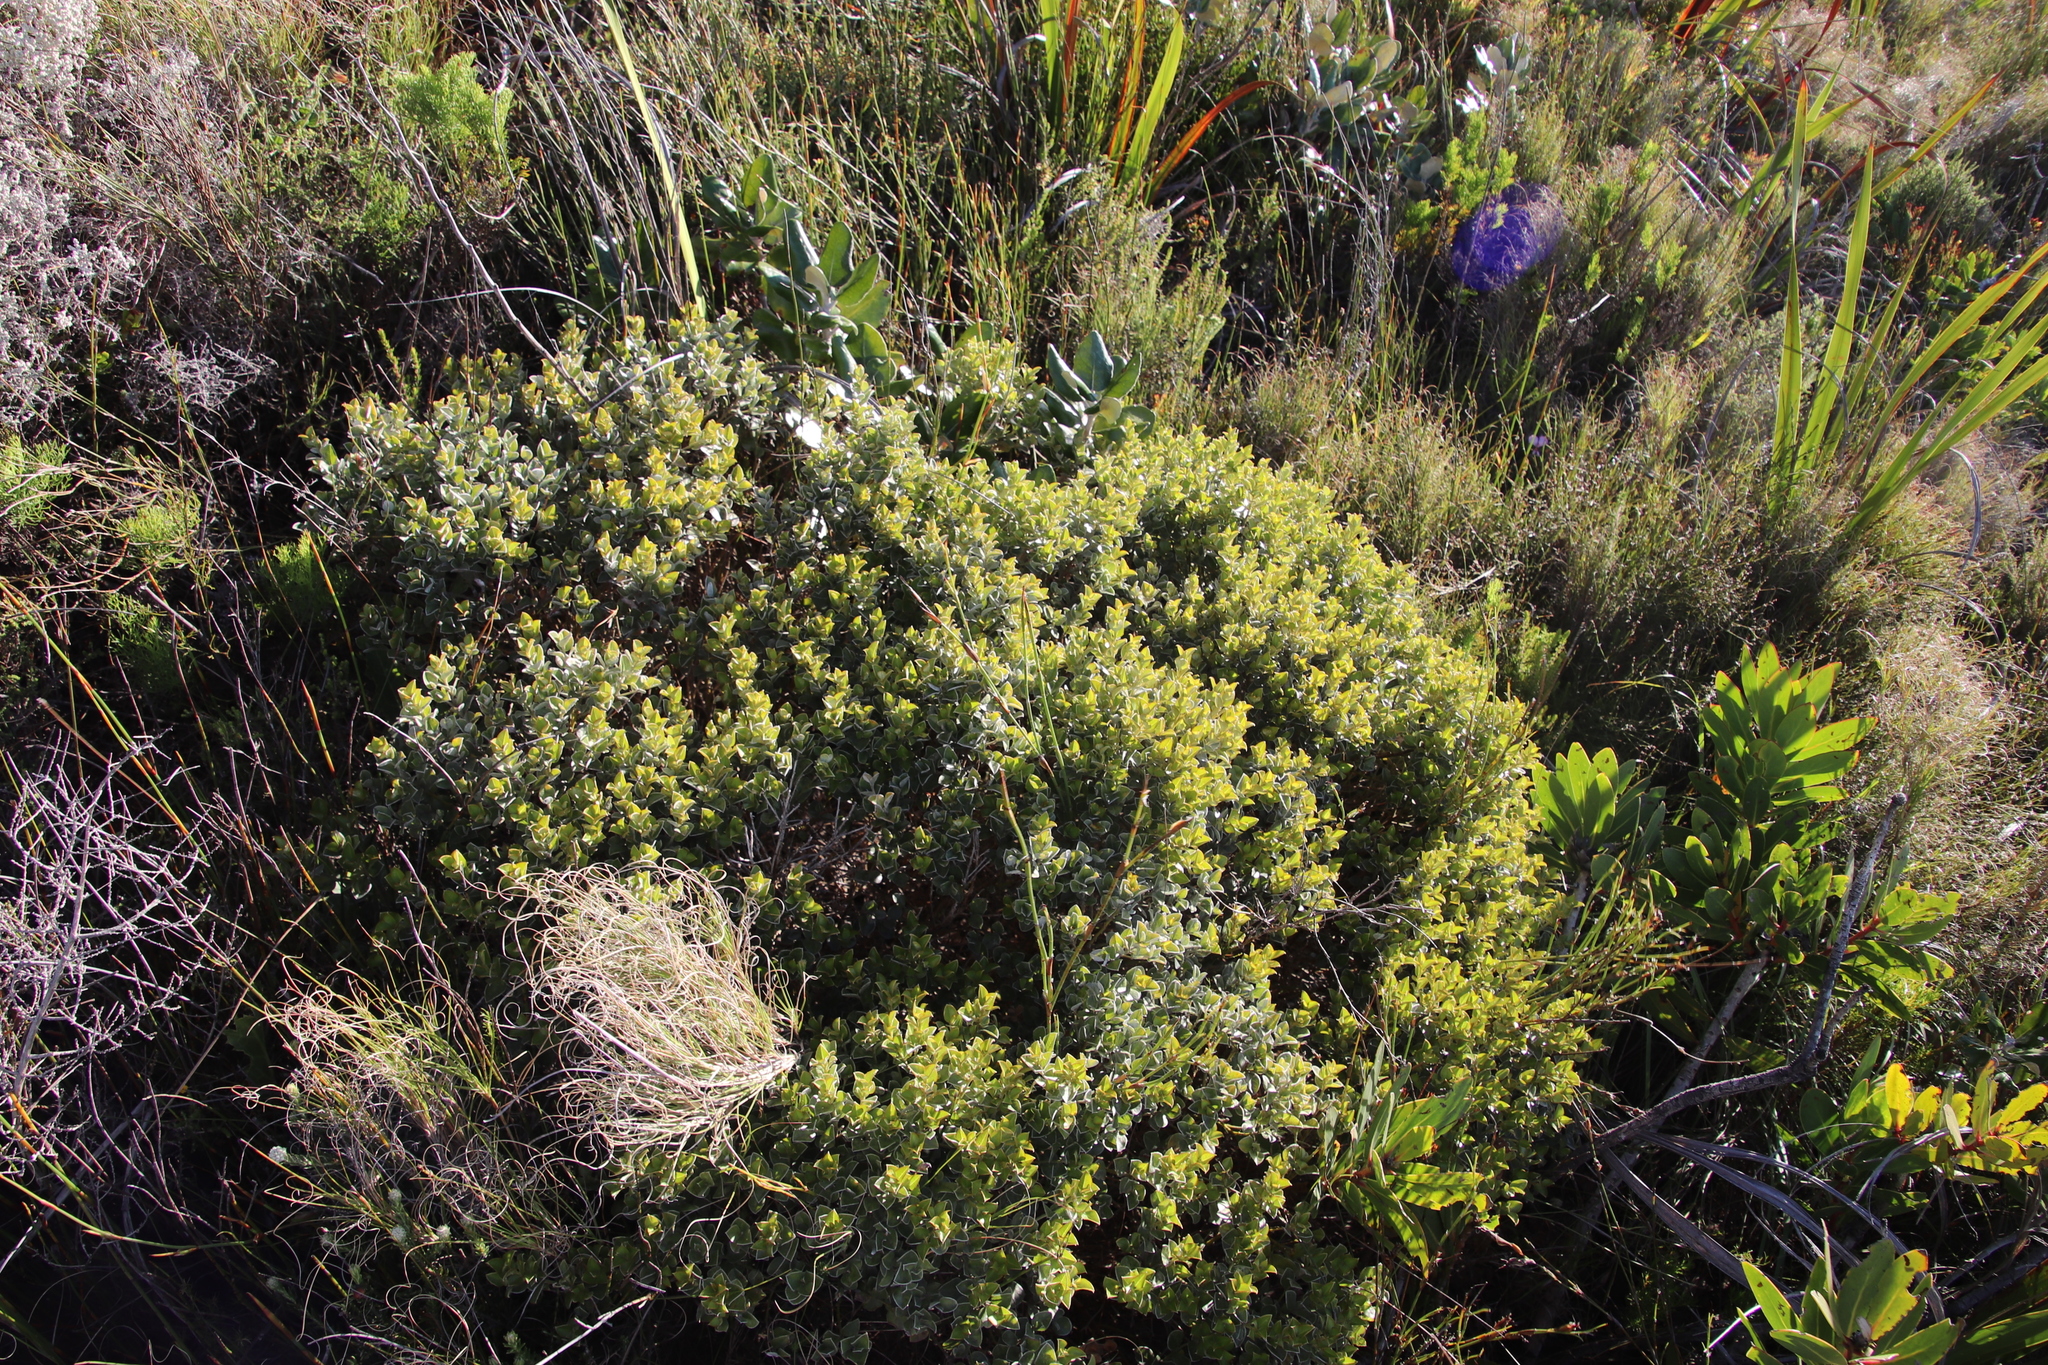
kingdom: Plantae
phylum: Tracheophyta
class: Magnoliopsida
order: Fabales
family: Fabaceae
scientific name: Fabaceae
